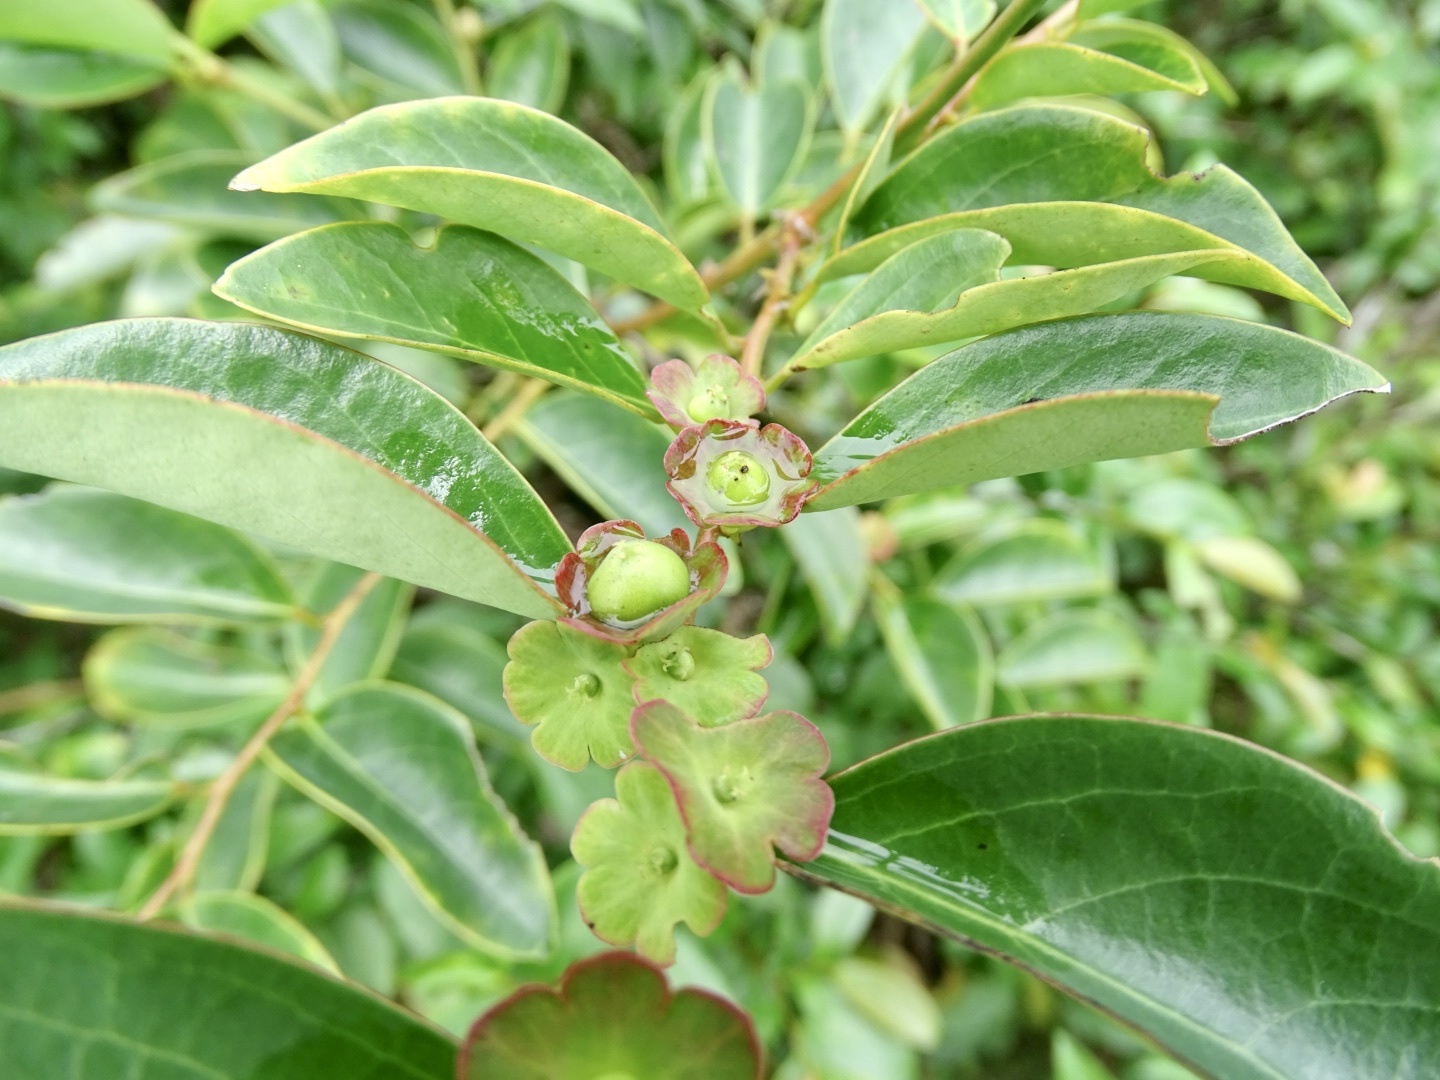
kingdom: Plantae
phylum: Tracheophyta
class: Magnoliopsida
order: Malpighiales
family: Phyllanthaceae
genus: Breynia
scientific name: Breynia fruticosa
